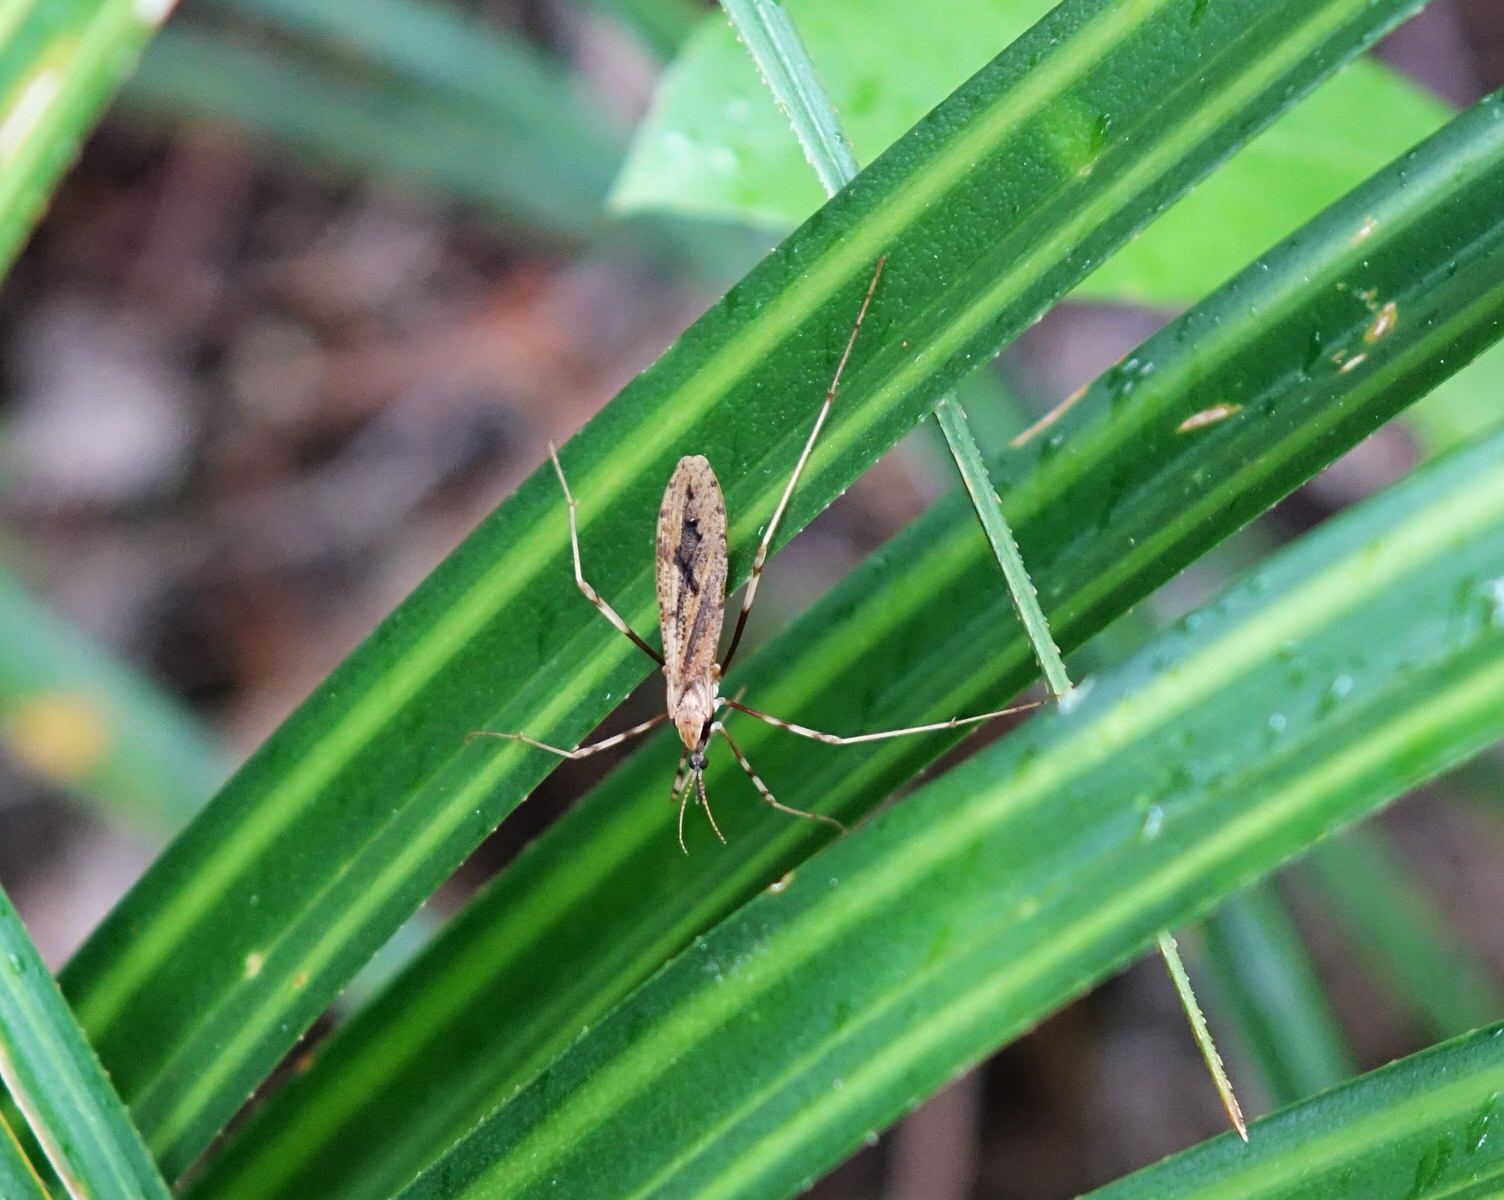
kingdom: Animalia
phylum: Arthropoda
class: Insecta
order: Diptera
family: Limoniidae
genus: Rhamphophila
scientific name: Rhamphophila sinistra
